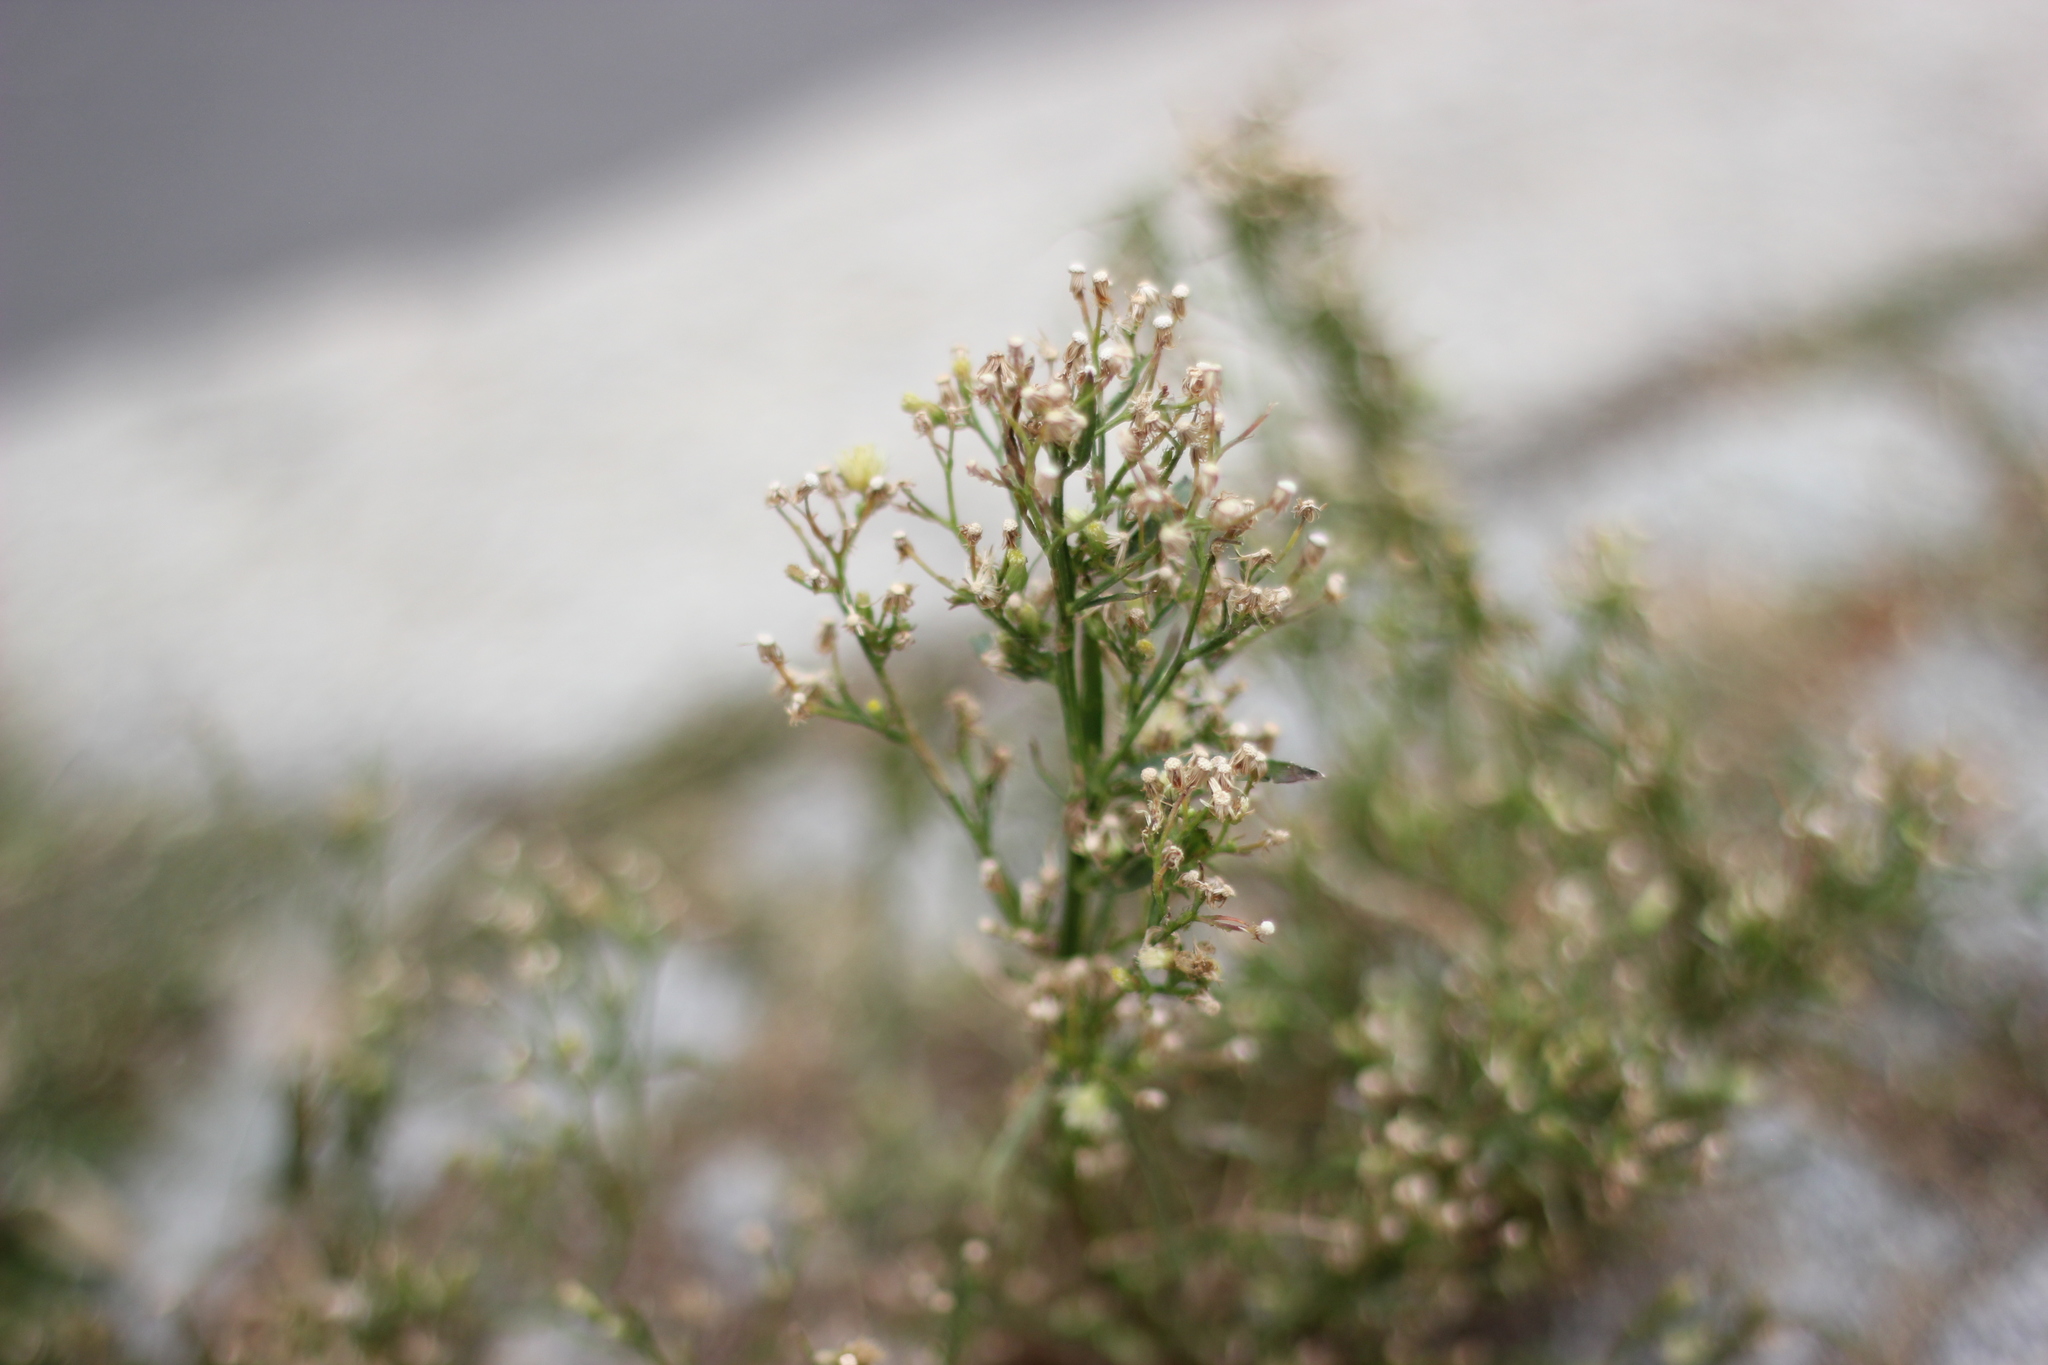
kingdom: Plantae
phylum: Tracheophyta
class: Magnoliopsida
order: Asterales
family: Asteraceae
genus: Erigeron
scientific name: Erigeron canadensis
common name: Canadian fleabane
